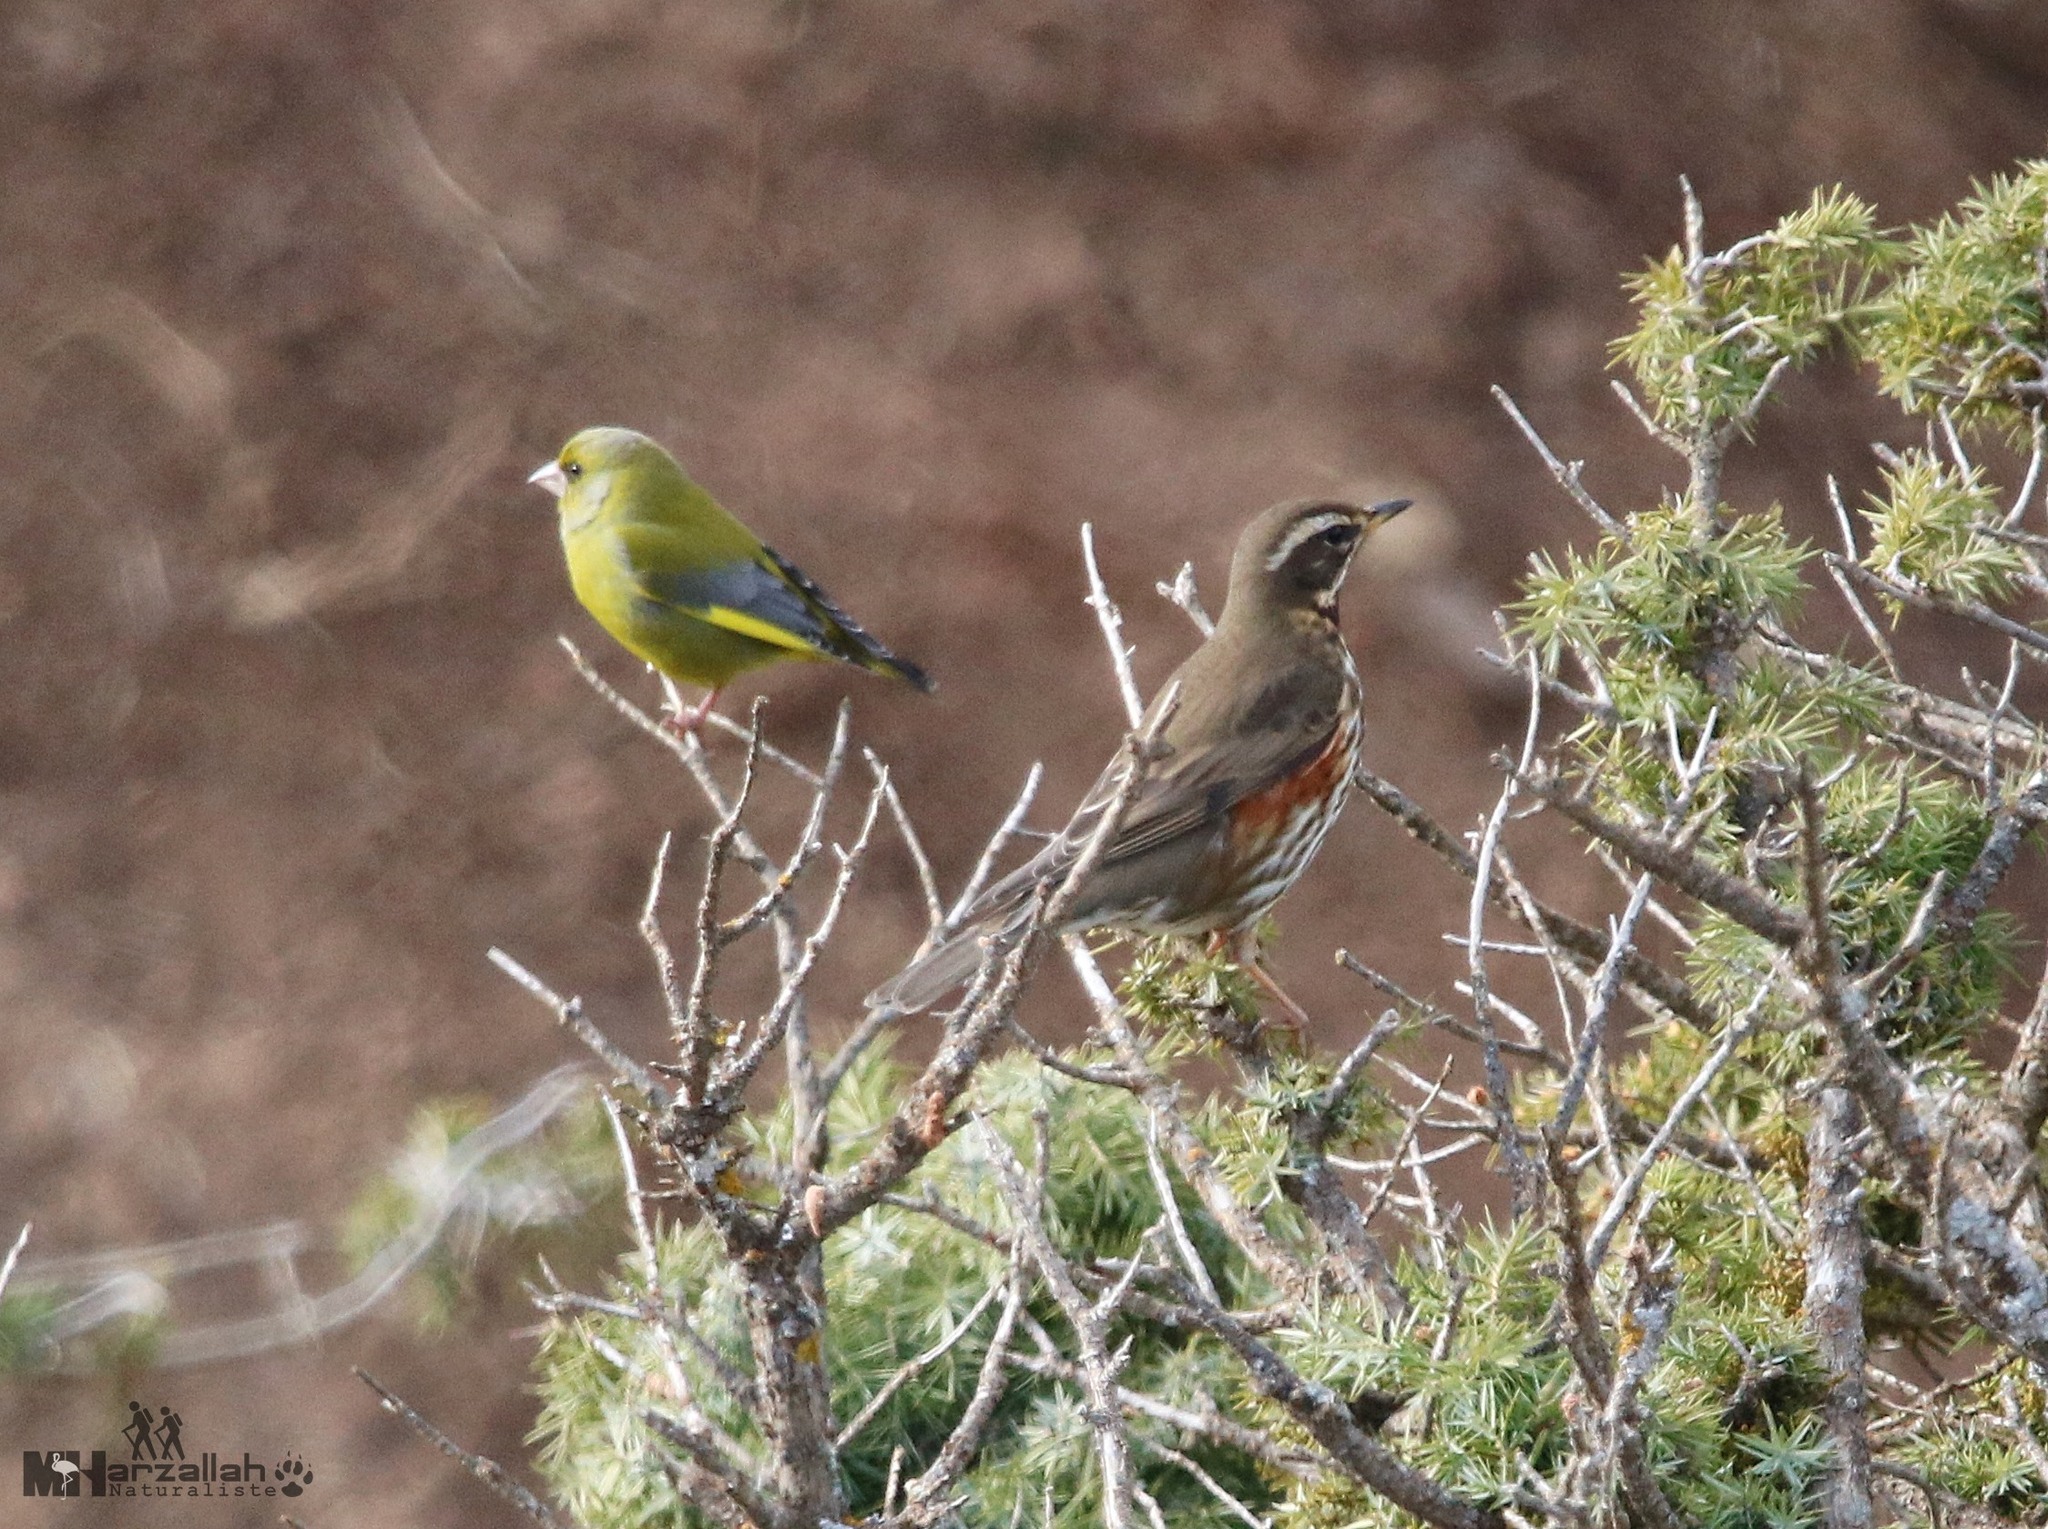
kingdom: Plantae
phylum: Tracheophyta
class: Liliopsida
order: Poales
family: Poaceae
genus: Chloris
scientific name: Chloris chloris
